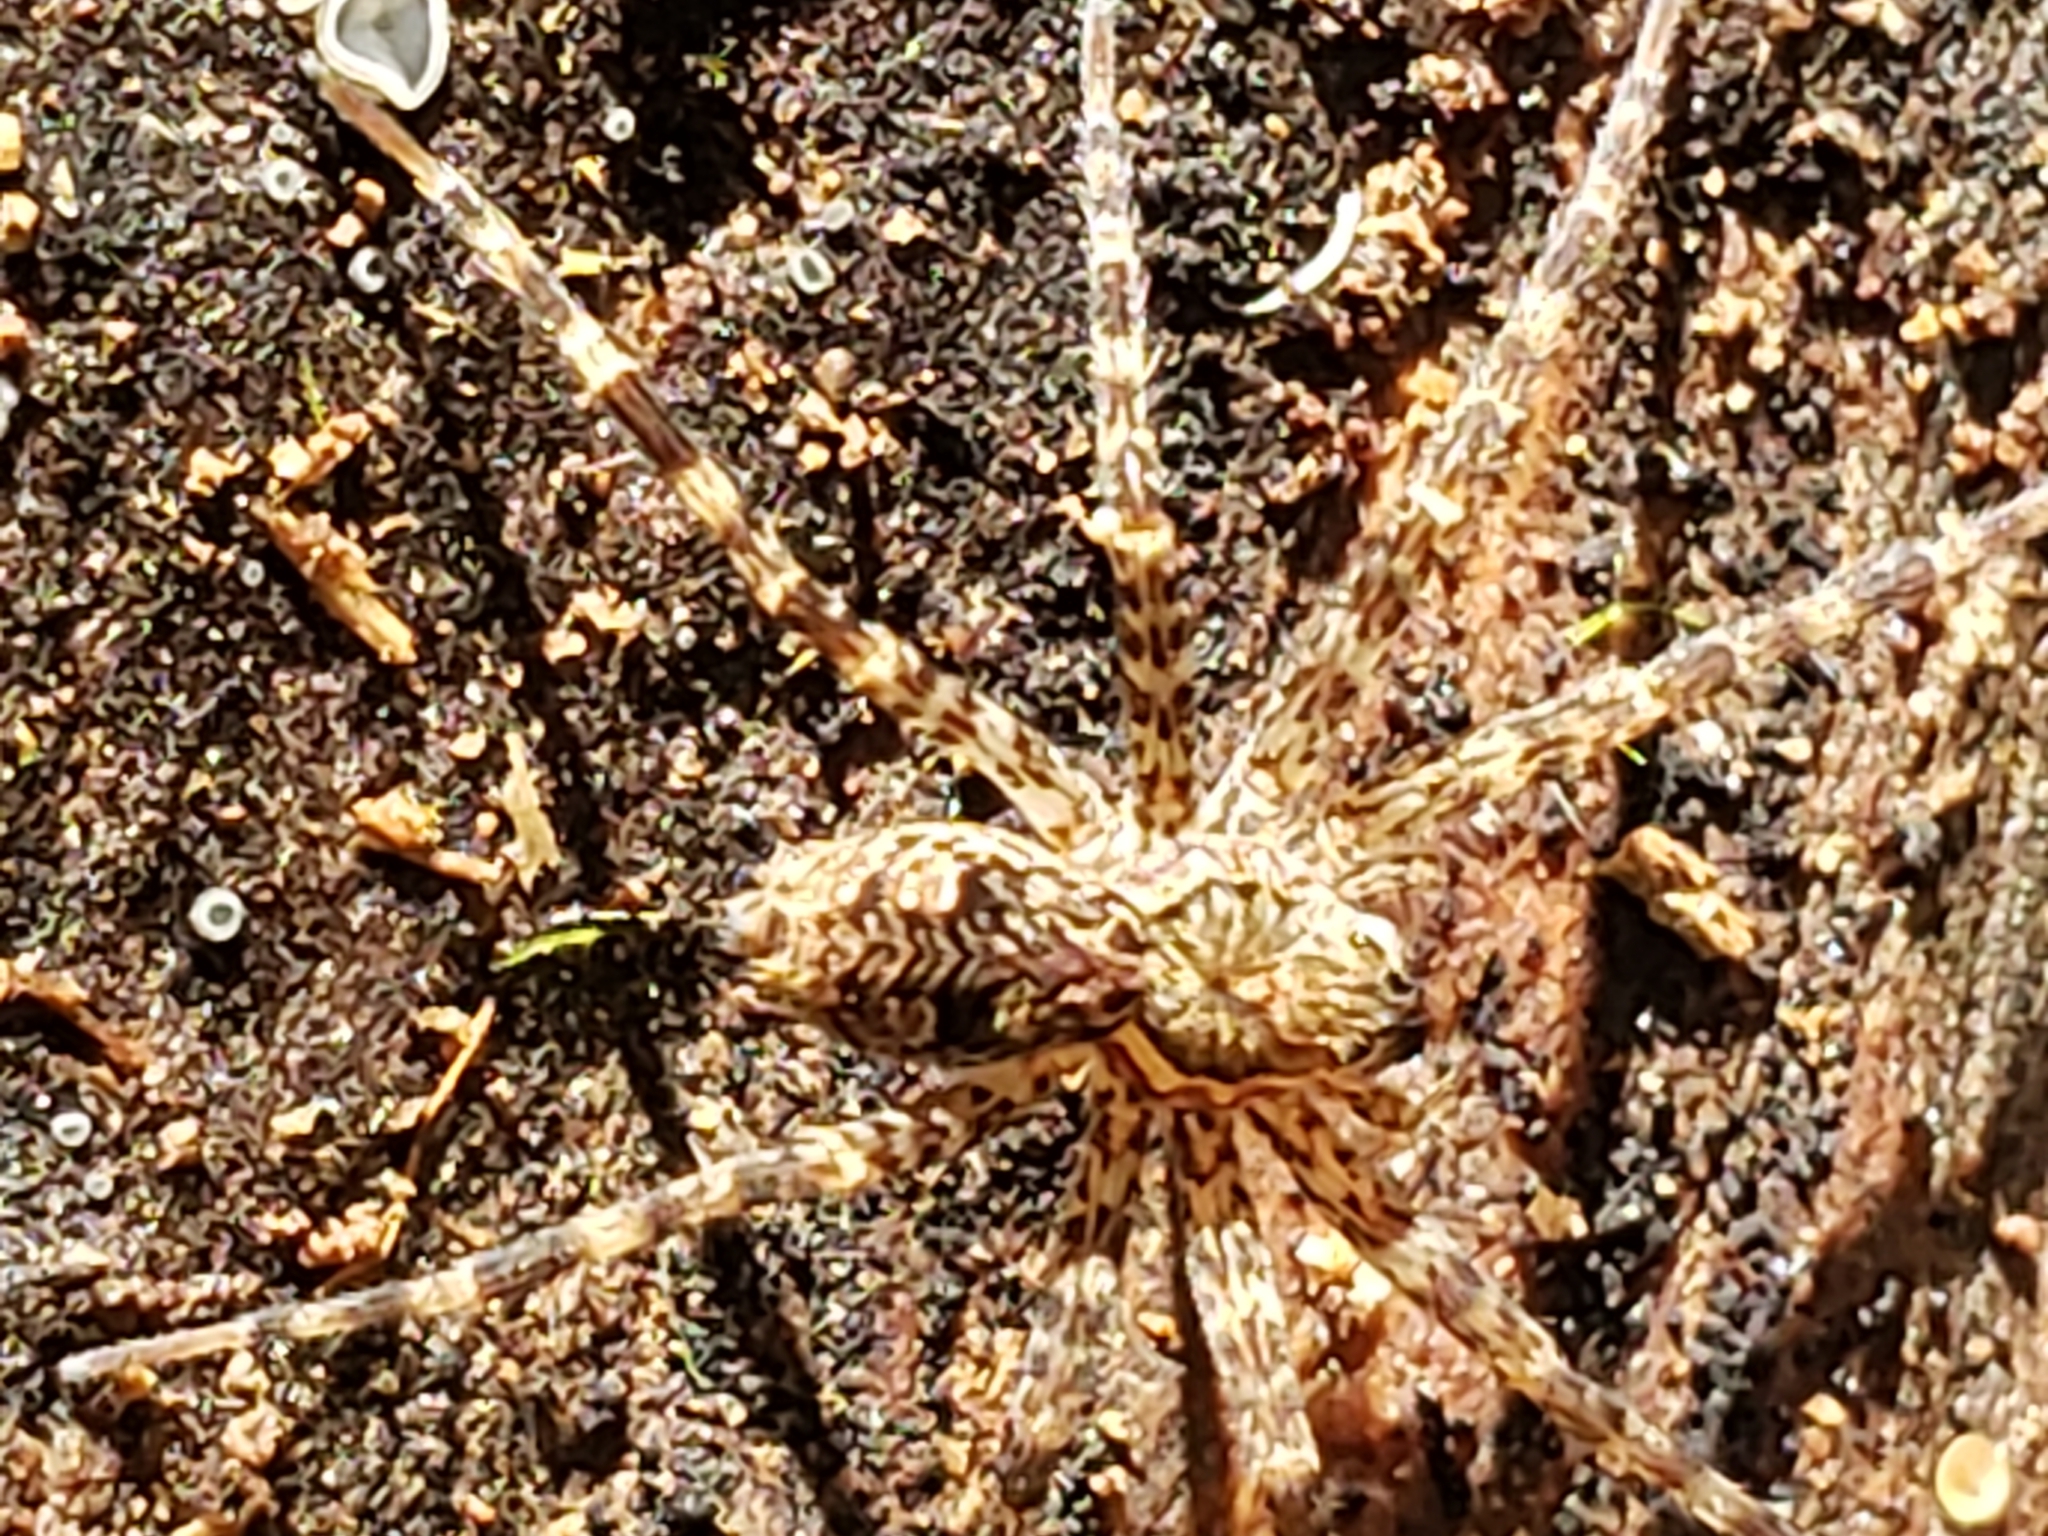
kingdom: Animalia
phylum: Arthropoda
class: Arachnida
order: Araneae
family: Pisauridae
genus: Dolomedes
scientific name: Dolomedes tenebrosus
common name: Dark fishing spider
